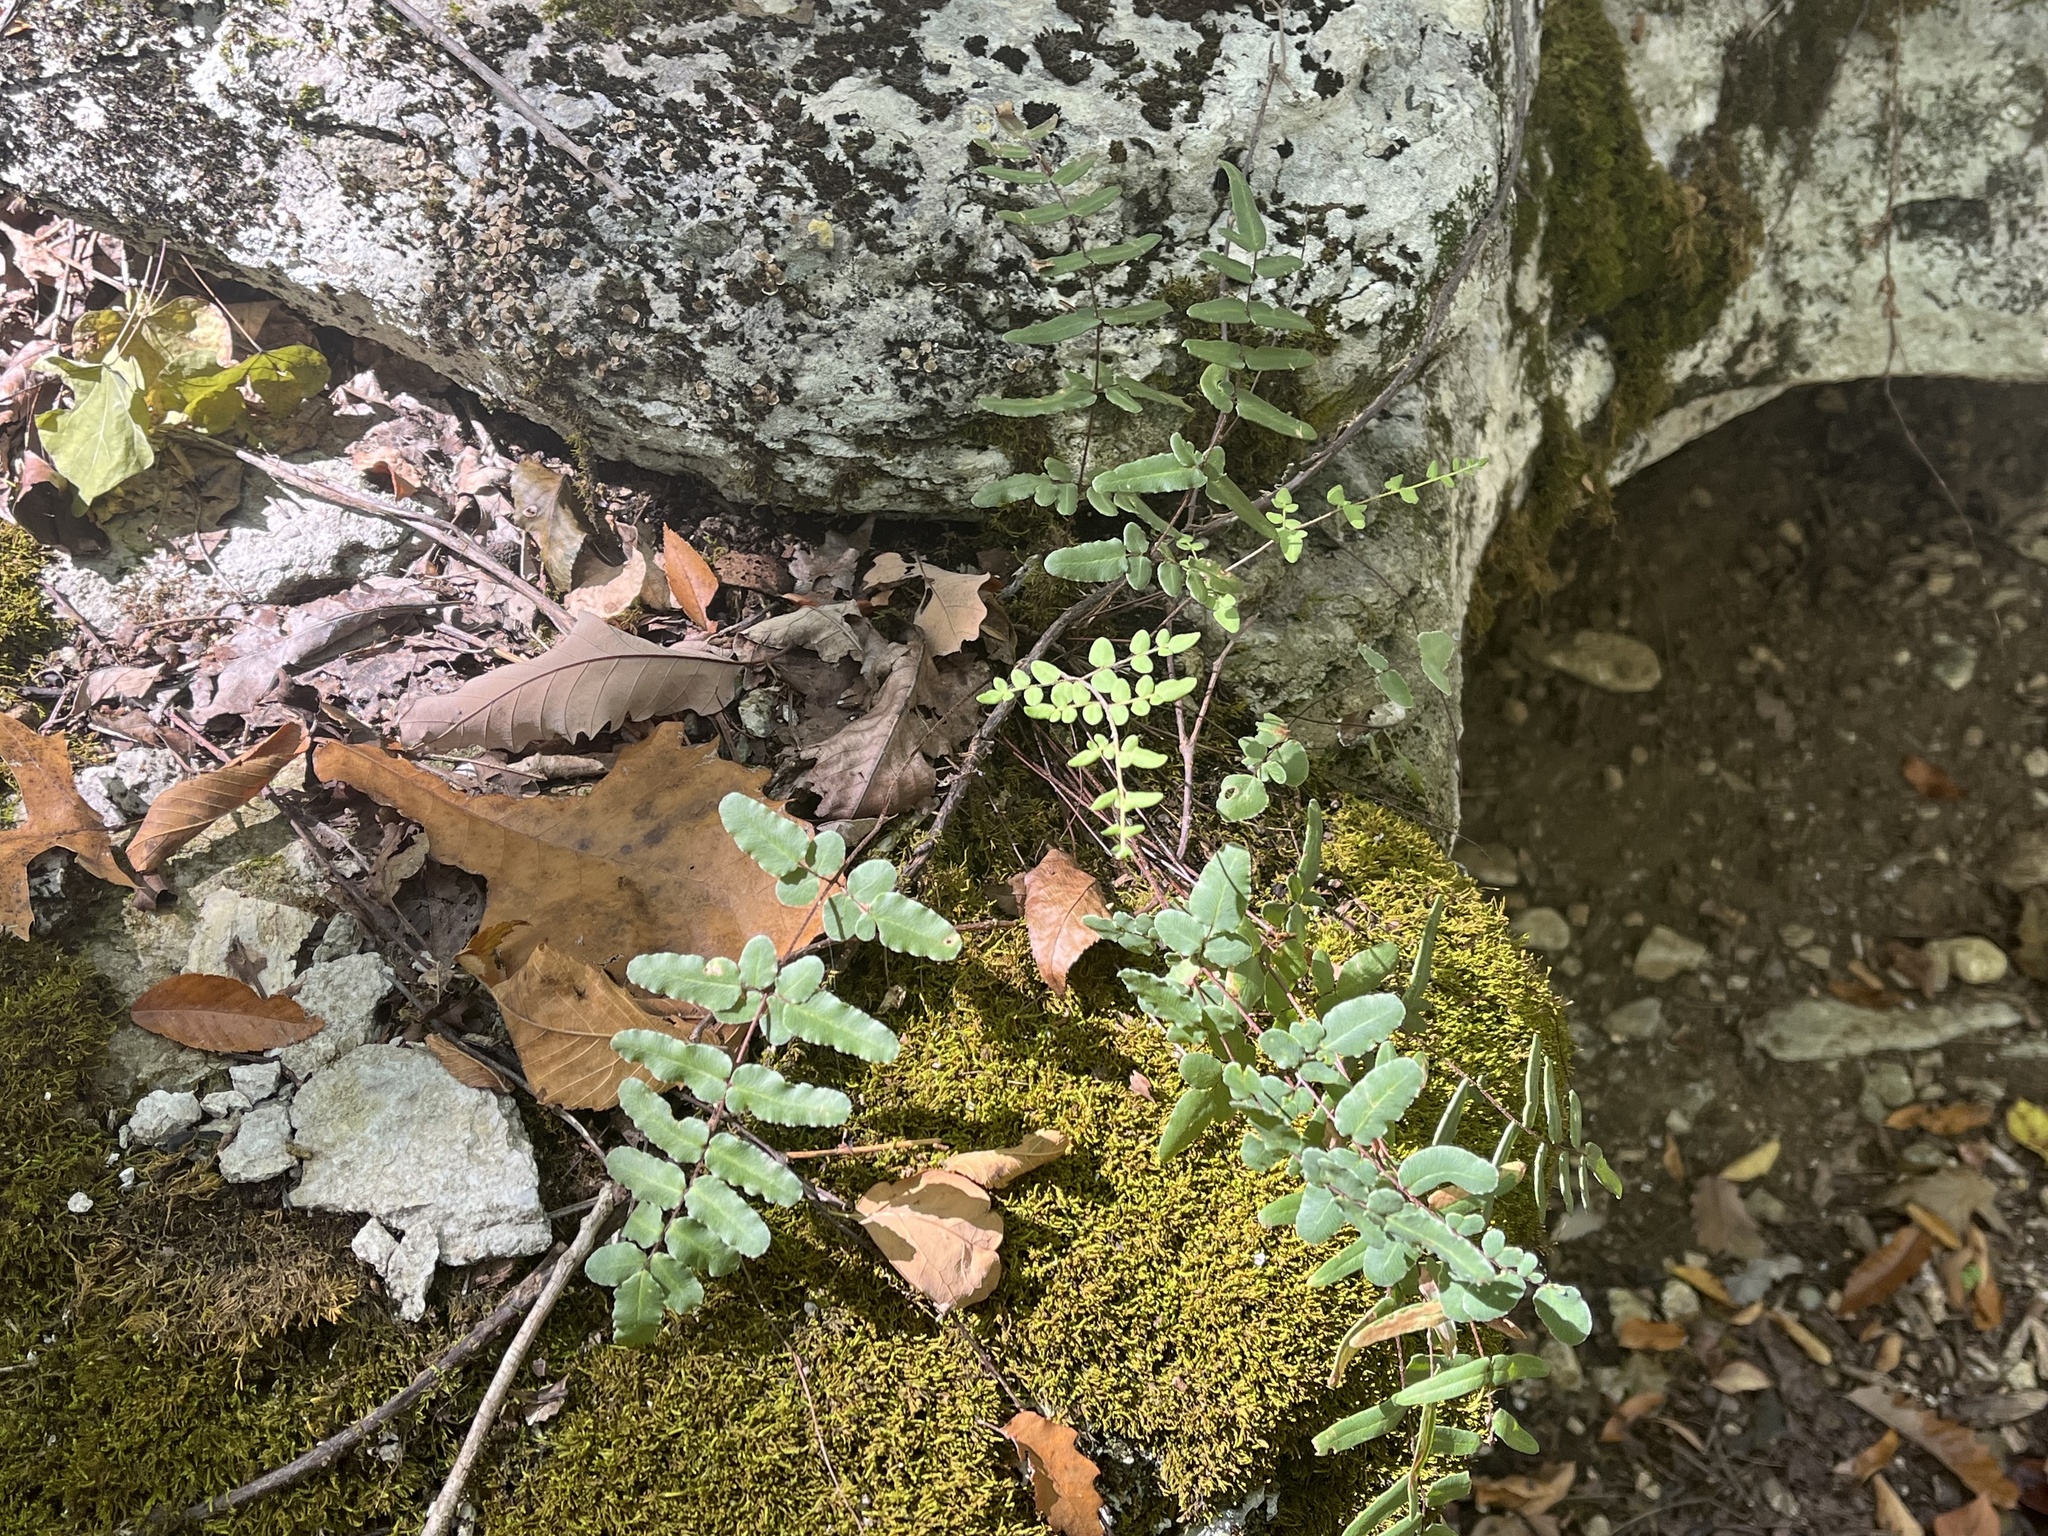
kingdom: Plantae
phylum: Tracheophyta
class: Polypodiopsida
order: Polypodiales
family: Pteridaceae
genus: Pellaea
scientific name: Pellaea atropurpurea
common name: Hairy cliffbrake
